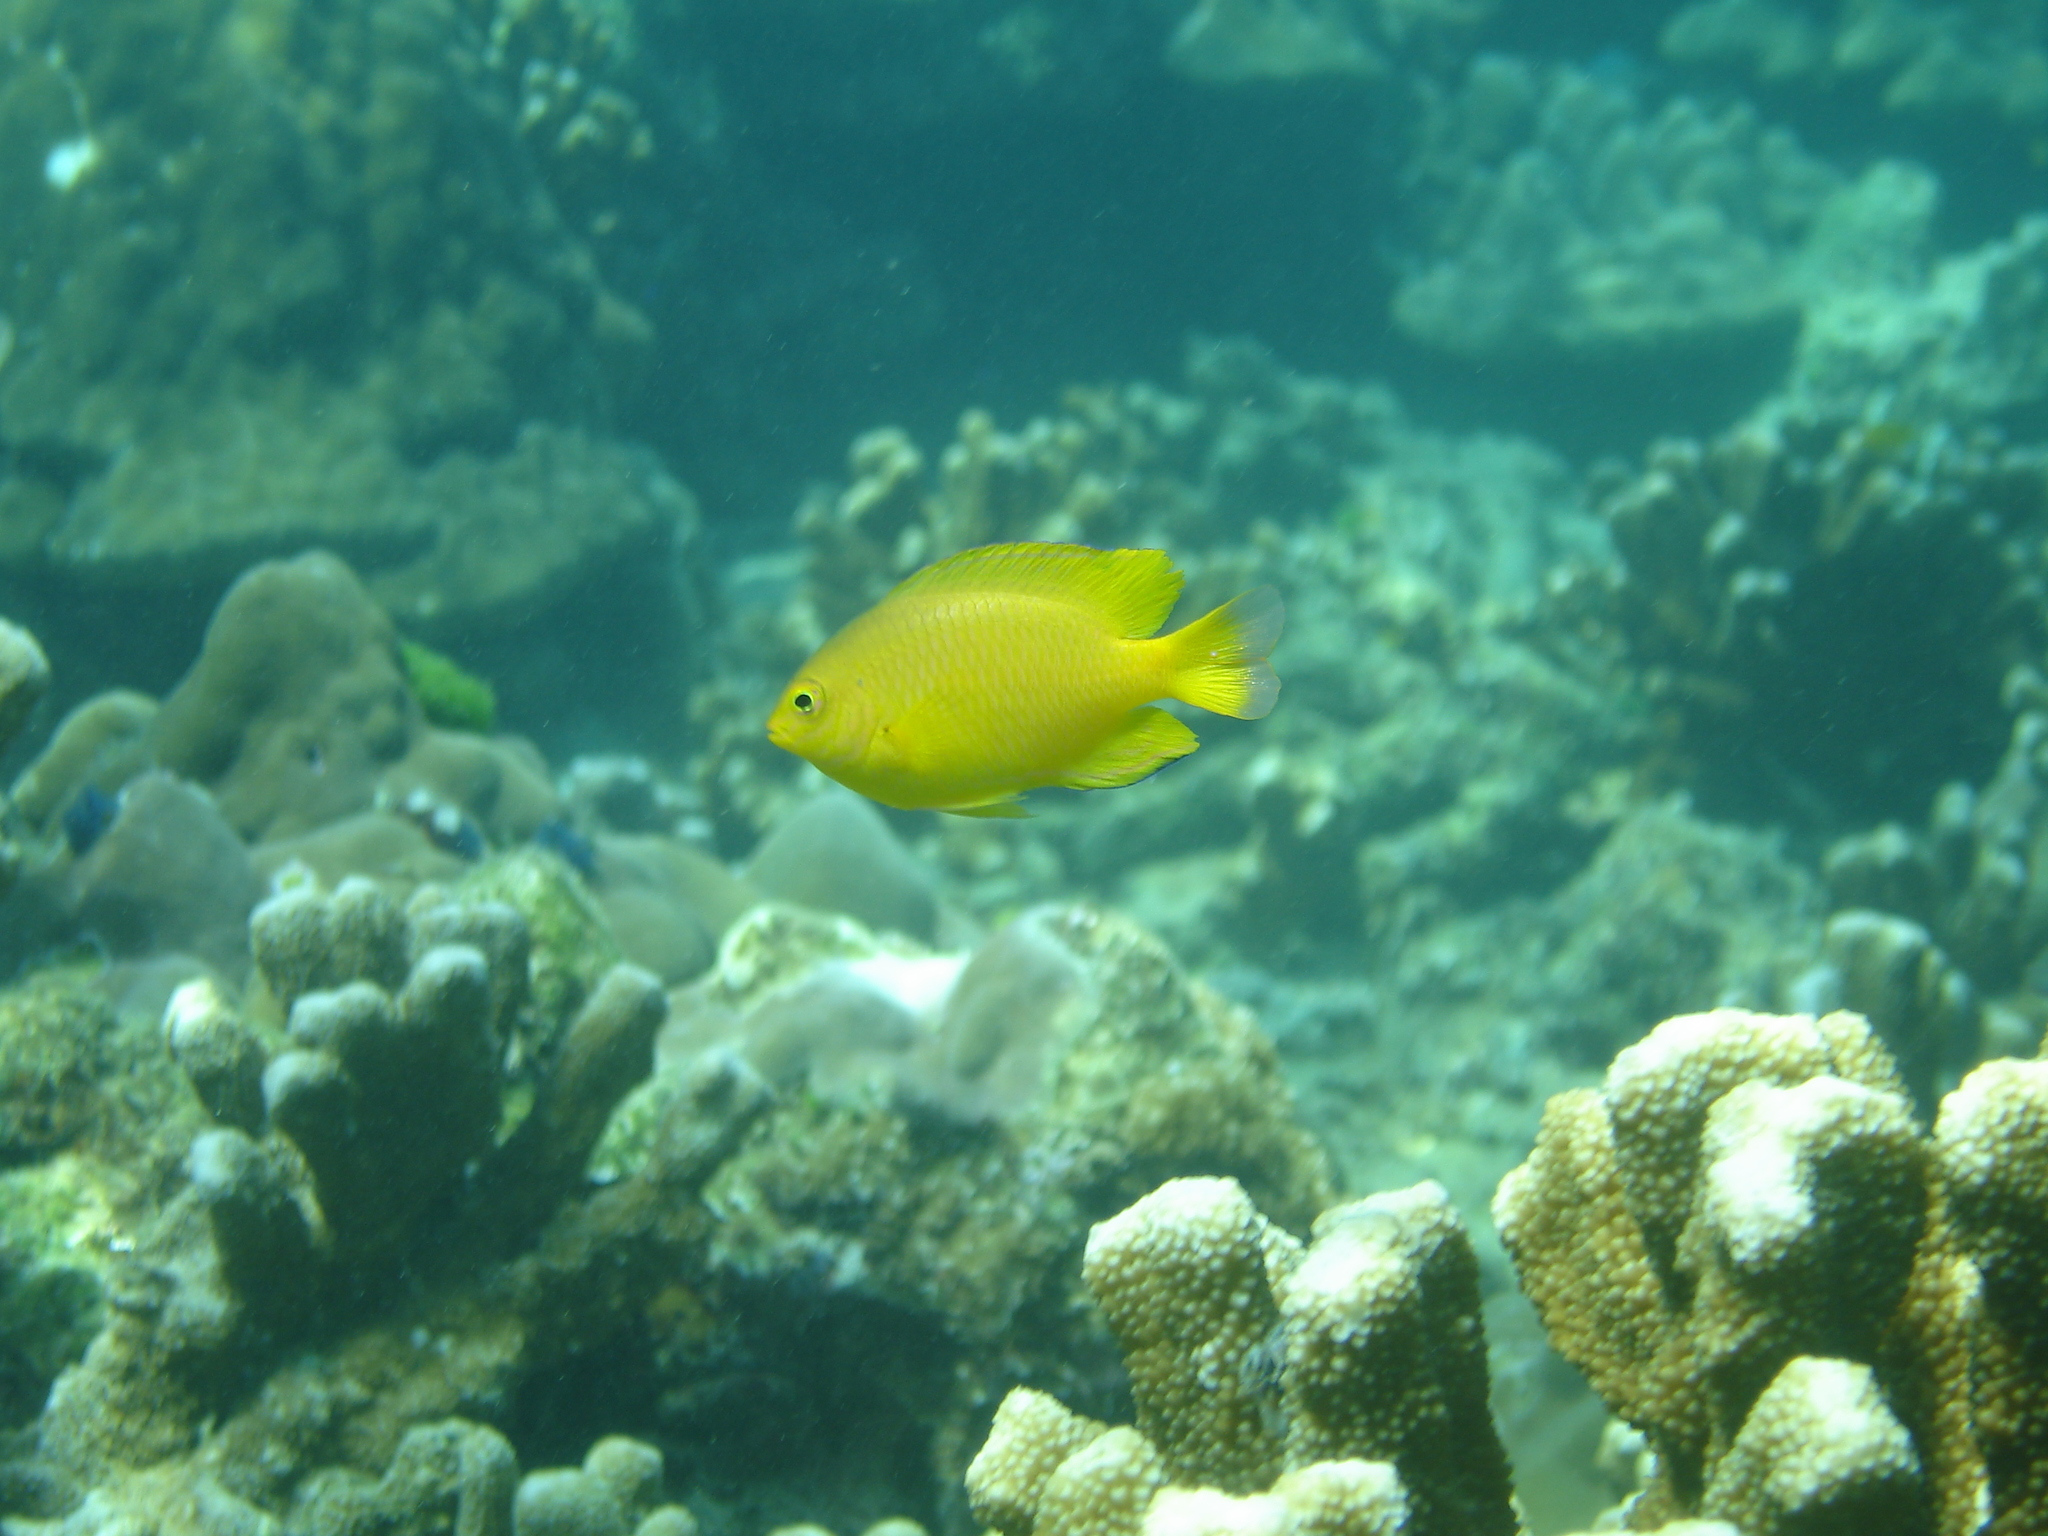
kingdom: Animalia
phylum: Chordata
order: Perciformes
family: Pomacentridae
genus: Pomacentrus
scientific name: Pomacentrus moluccensis
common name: Lemon damsel
